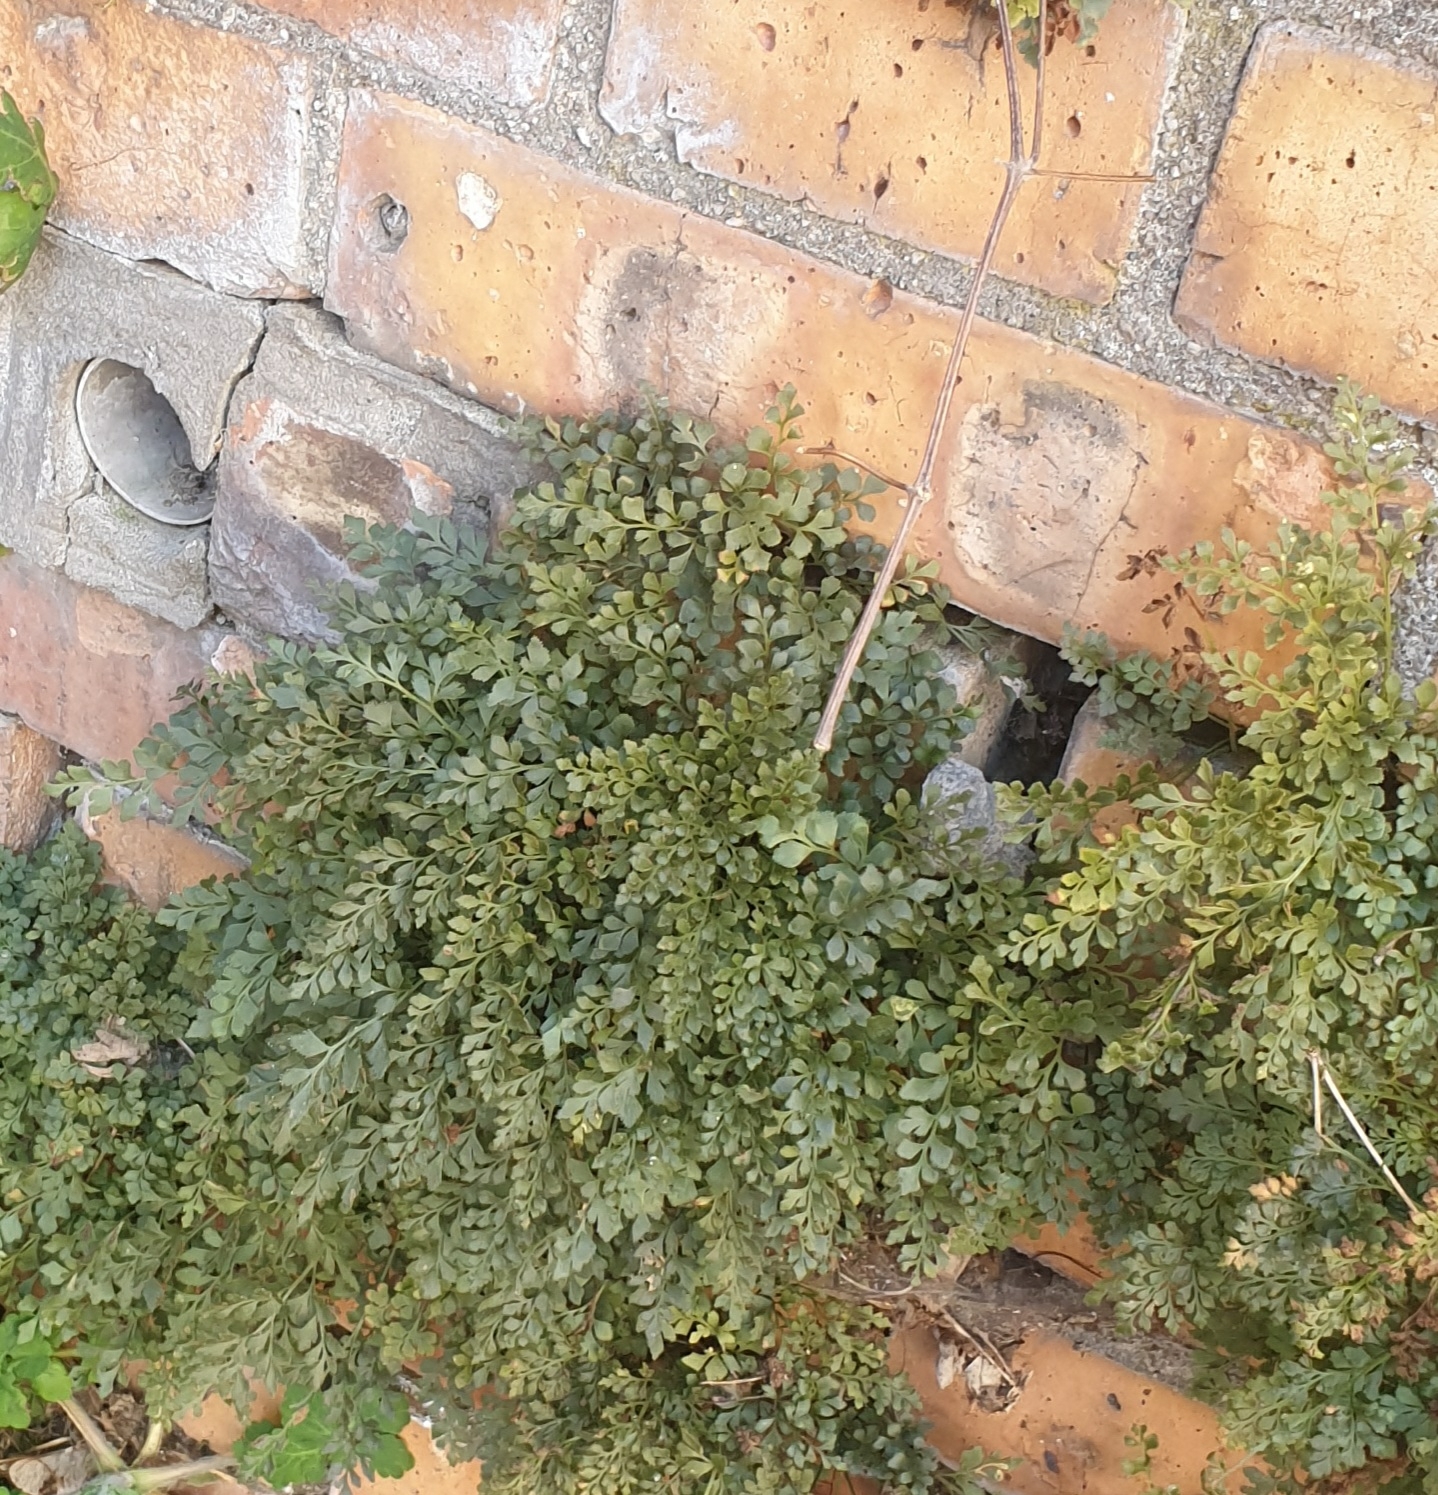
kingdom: Plantae
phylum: Tracheophyta
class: Polypodiopsida
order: Polypodiales
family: Aspleniaceae
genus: Asplenium
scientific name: Asplenium ruta-muraria
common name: Wall-rue
